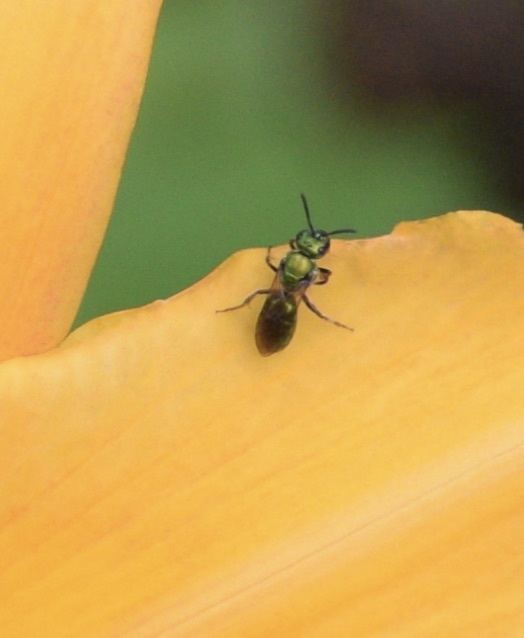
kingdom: Animalia
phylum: Arthropoda
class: Insecta
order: Hymenoptera
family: Halictidae
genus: Augochlora
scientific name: Augochlora pura
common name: Pure green sweat bee
